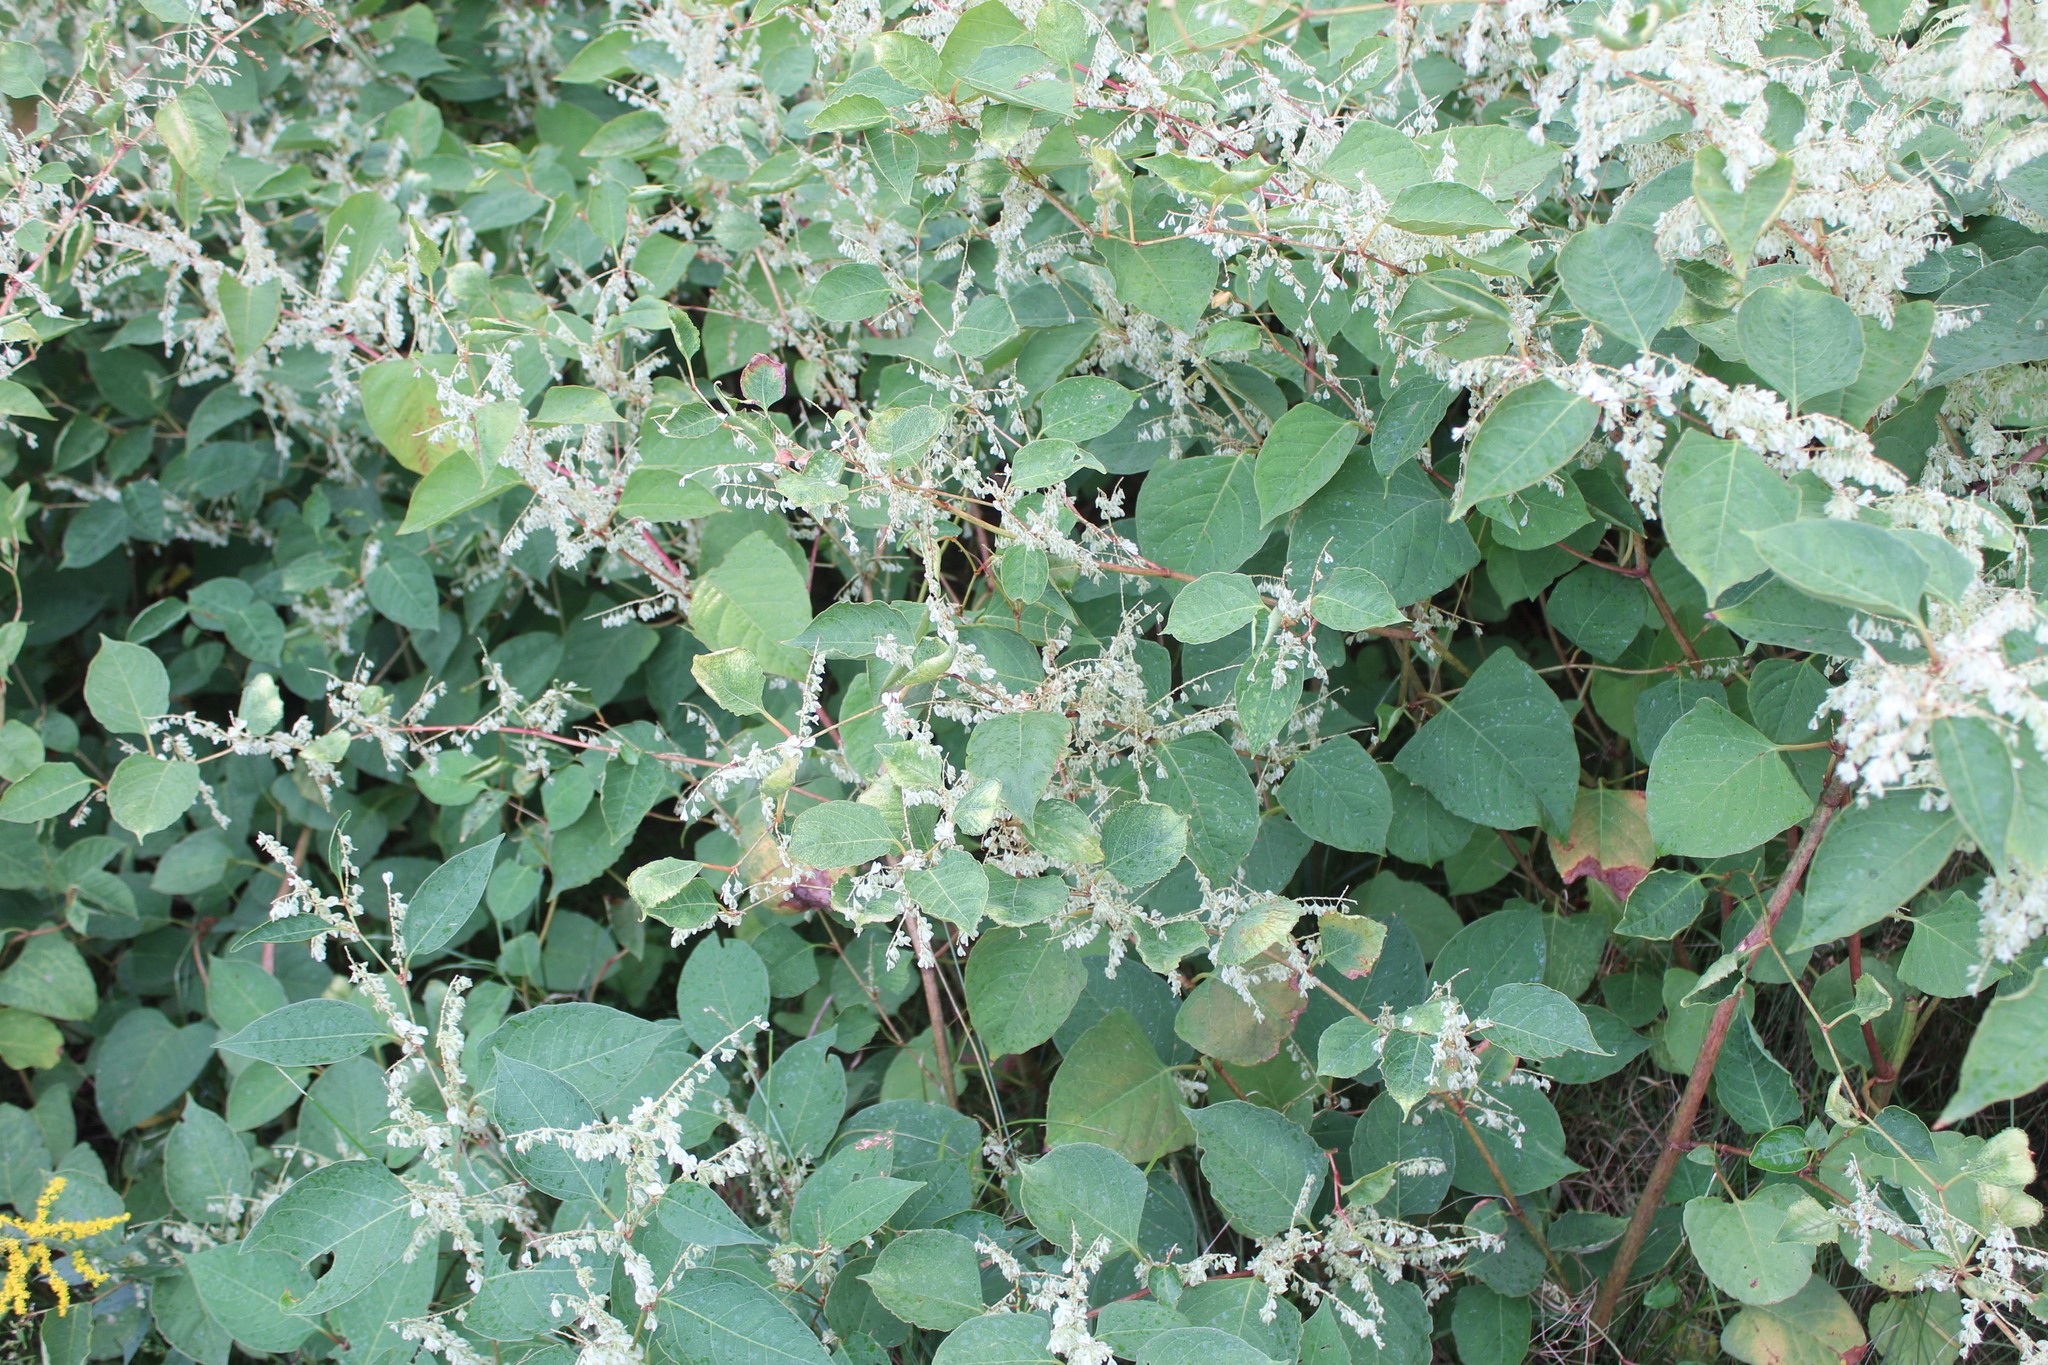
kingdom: Plantae
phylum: Tracheophyta
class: Magnoliopsida
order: Caryophyllales
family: Polygonaceae
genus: Reynoutria
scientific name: Reynoutria japonica
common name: Japanese knotweed
